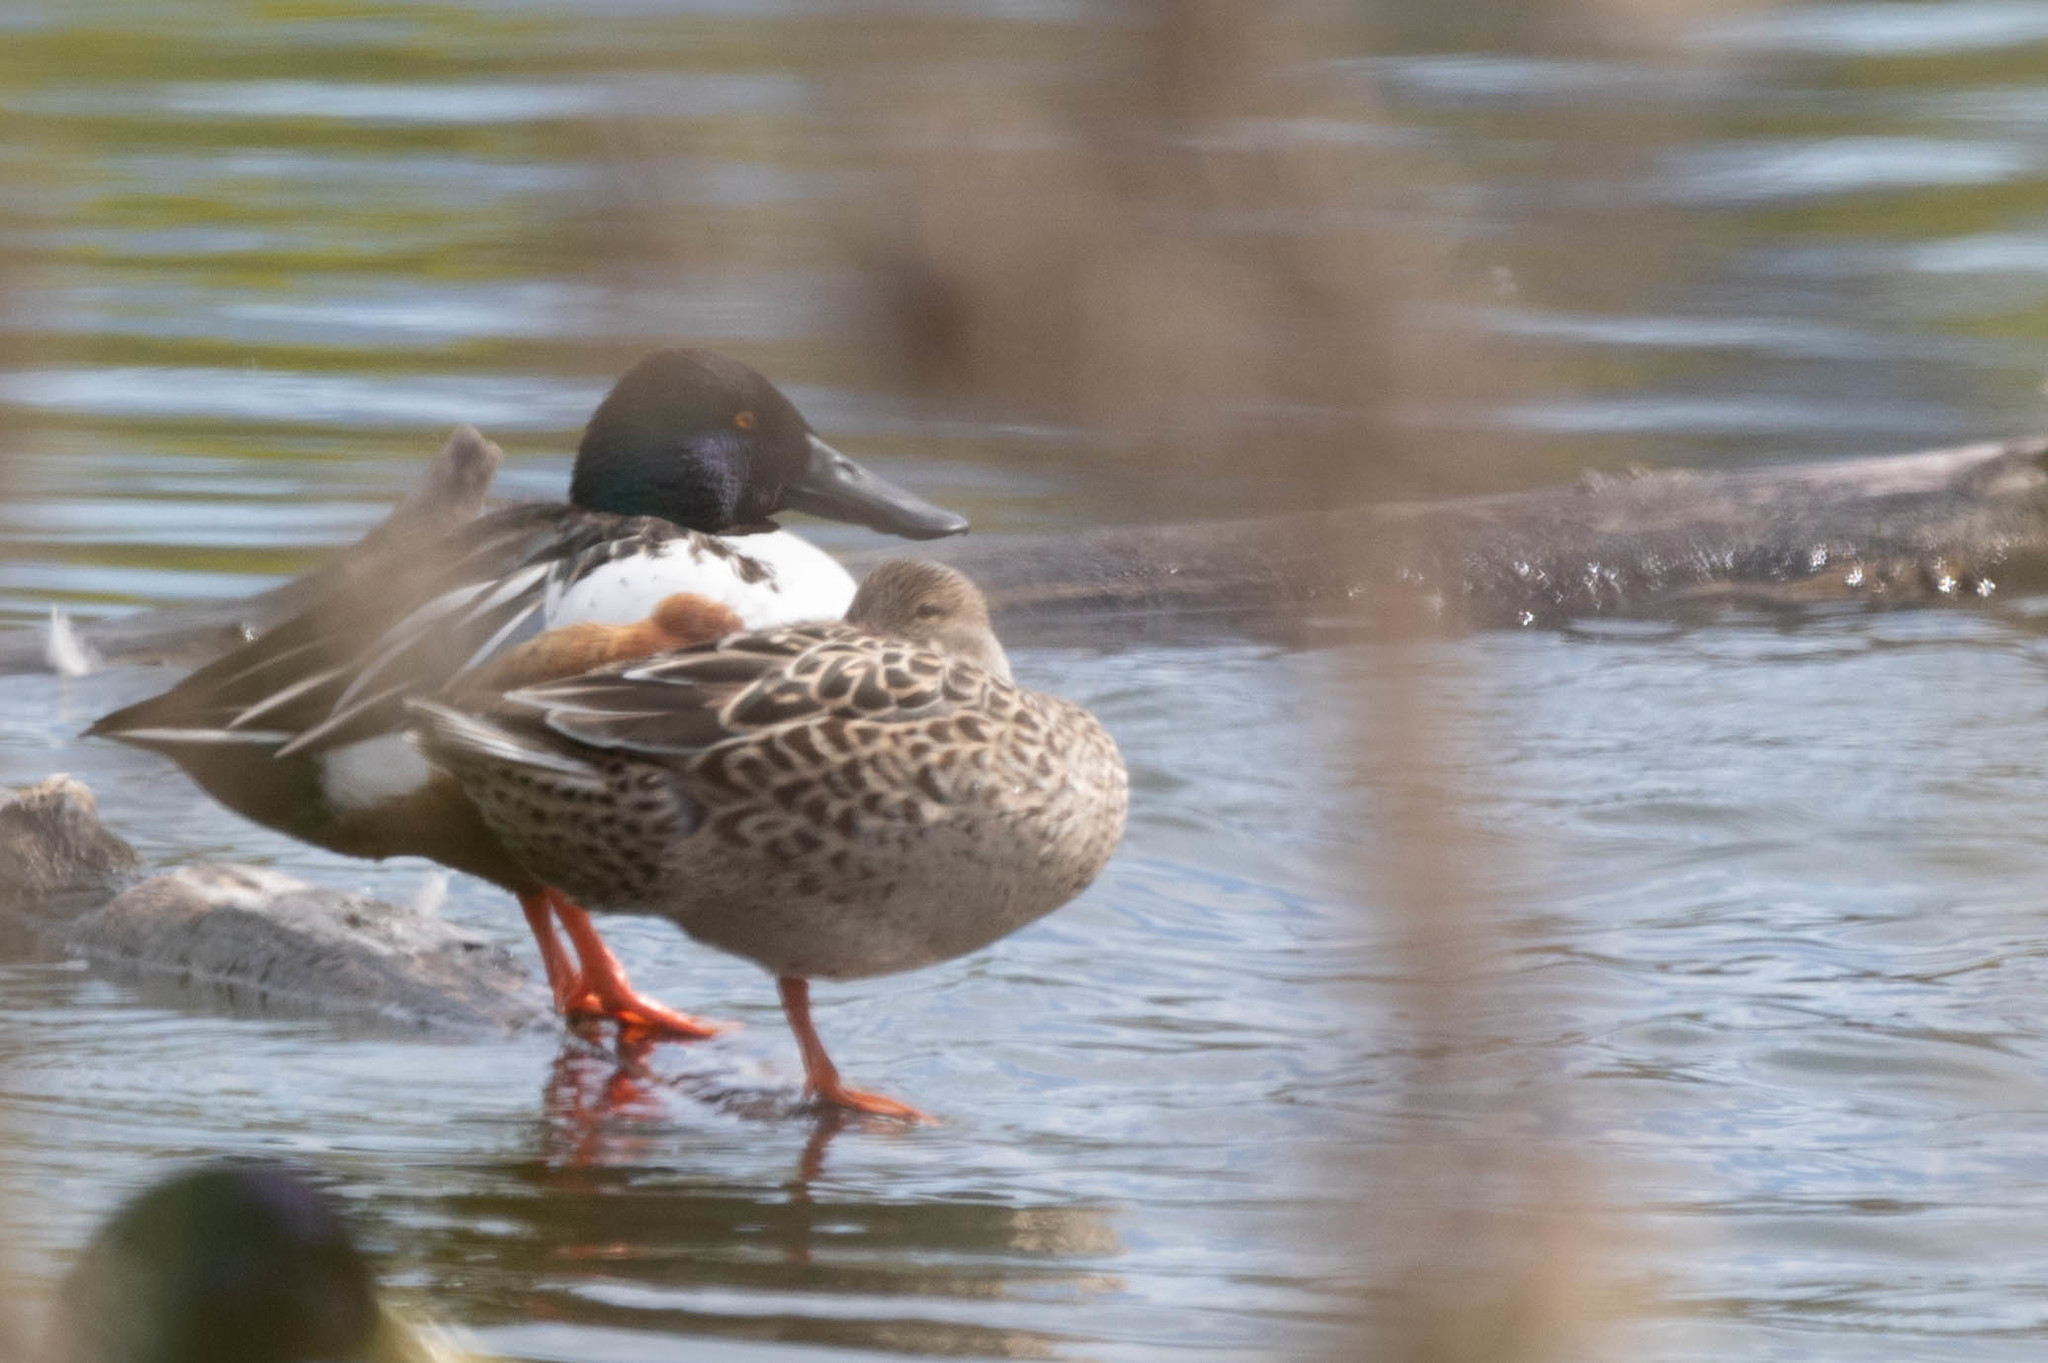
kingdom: Animalia
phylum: Chordata
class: Aves
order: Anseriformes
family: Anatidae
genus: Spatula
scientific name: Spatula clypeata
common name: Northern shoveler
